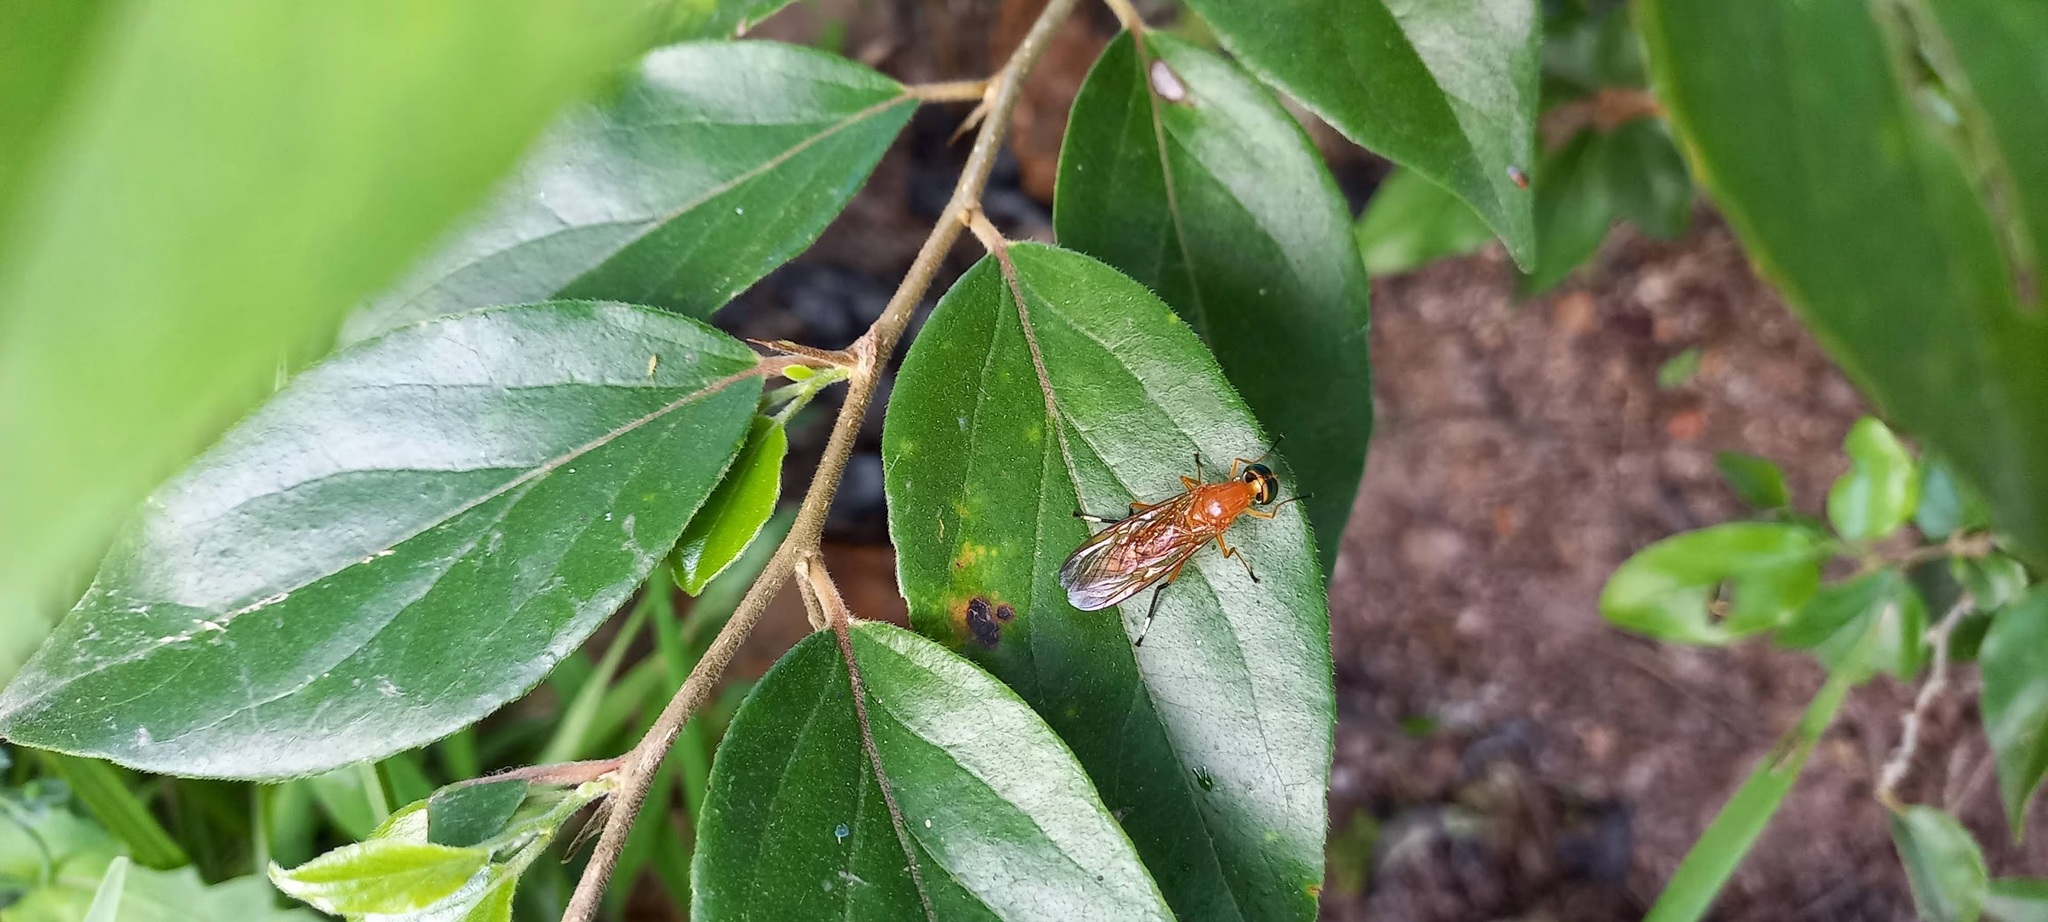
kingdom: Animalia
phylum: Arthropoda
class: Insecta
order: Diptera
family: Stratiomyidae
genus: Ptecticus
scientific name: Ptecticus testaceus
